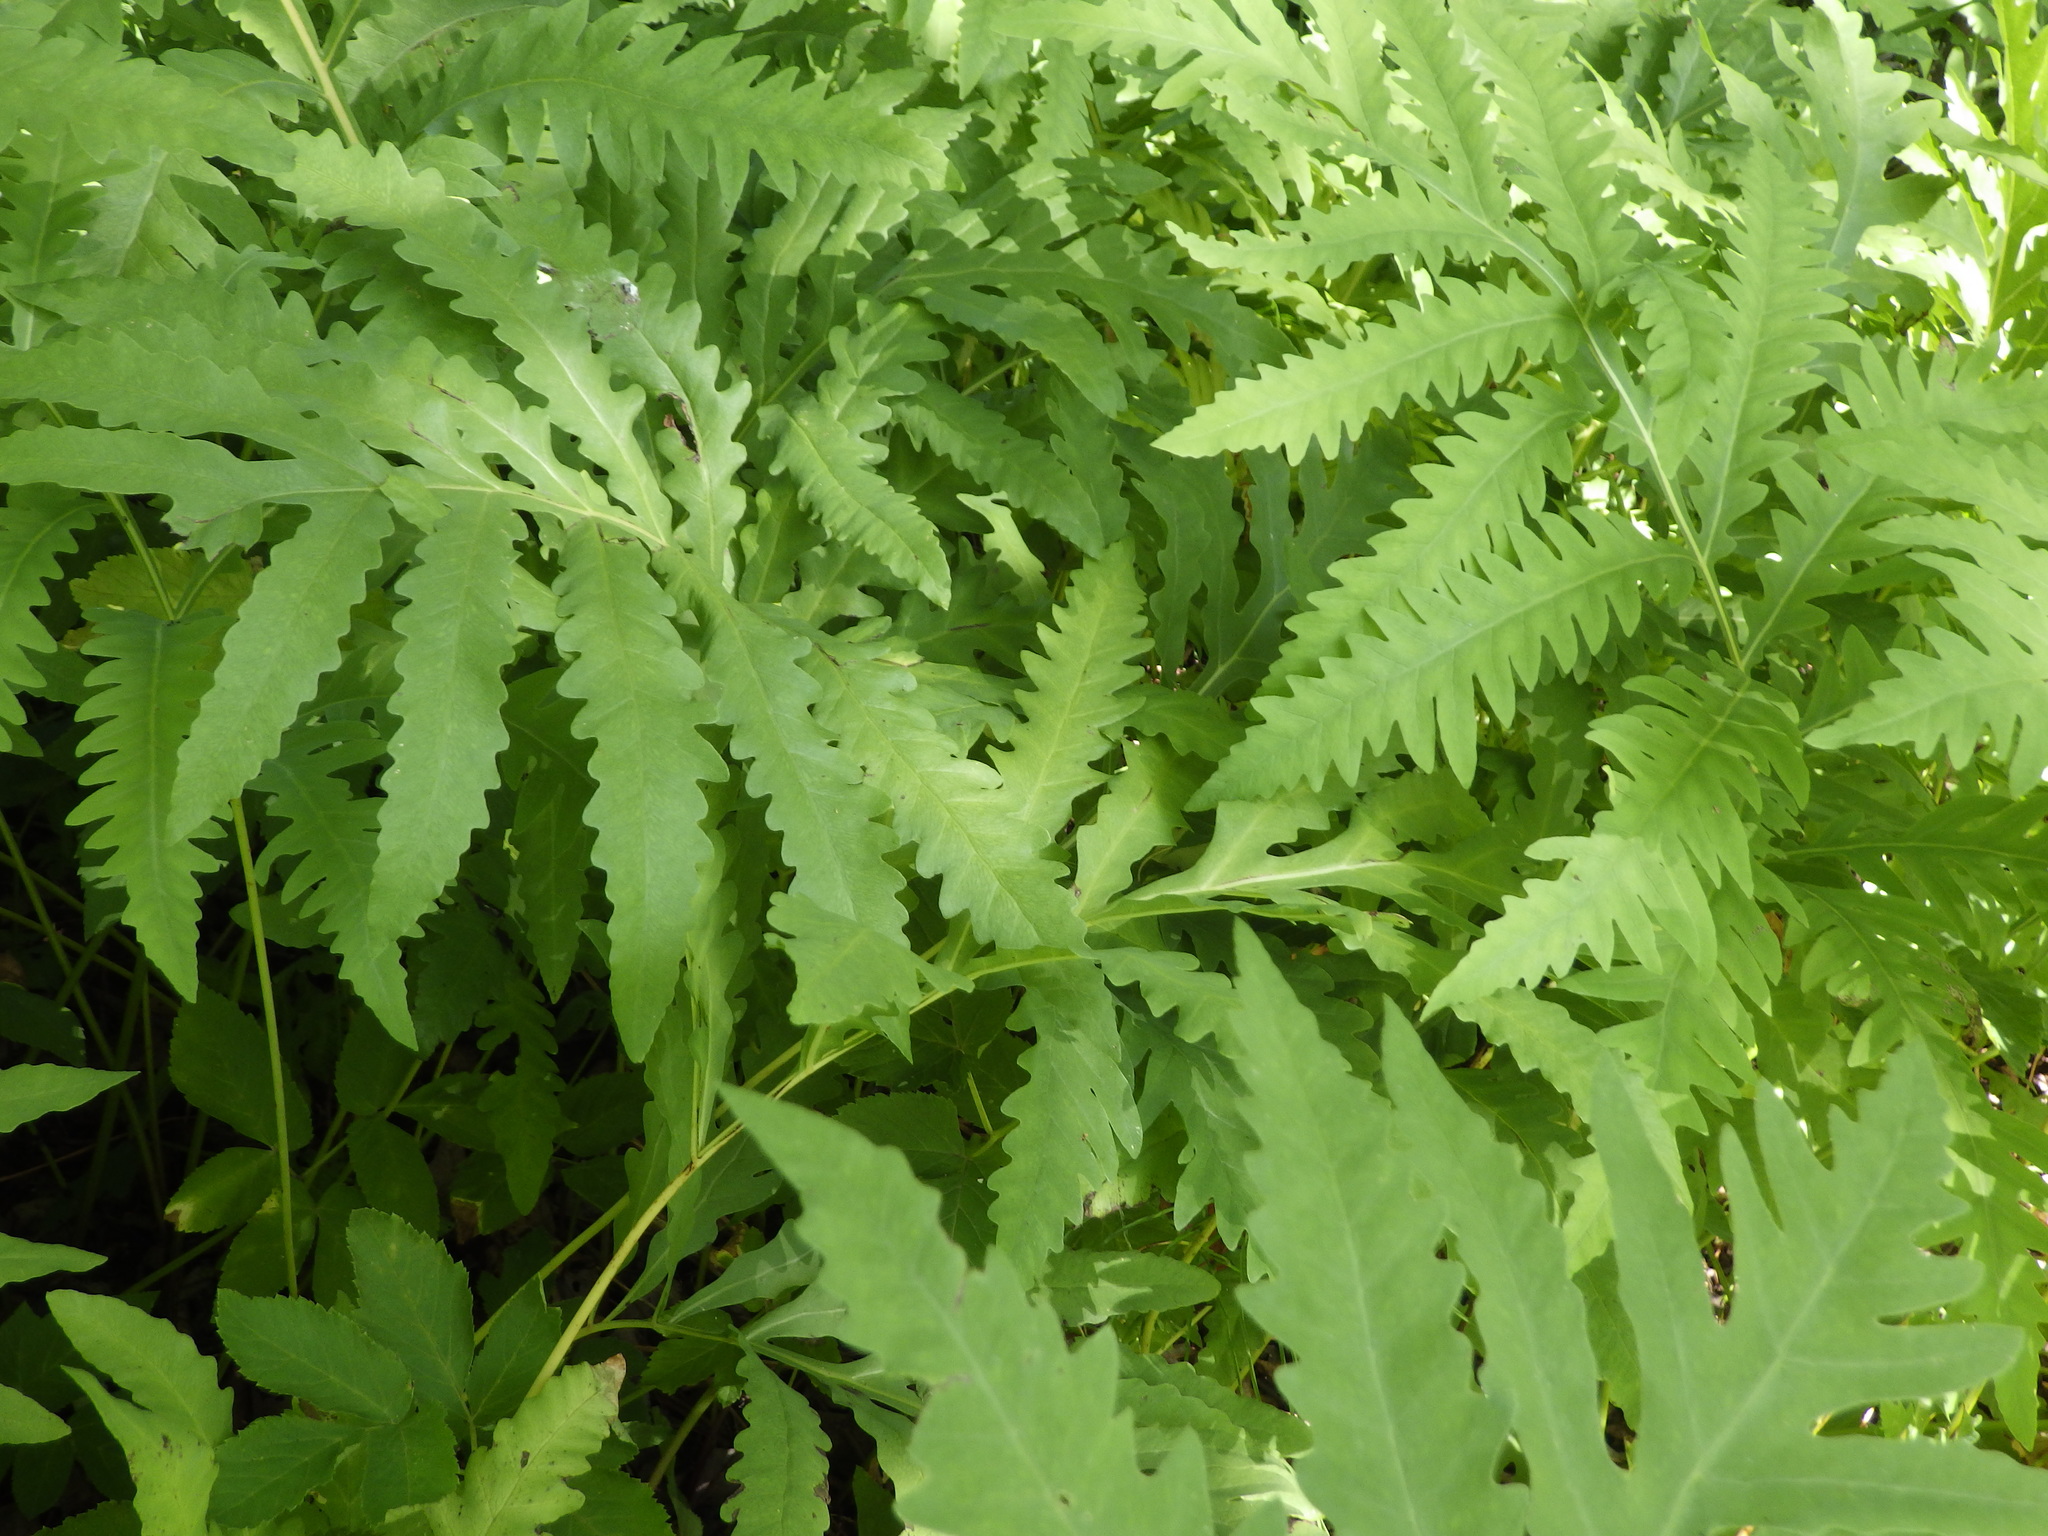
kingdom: Plantae
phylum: Tracheophyta
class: Polypodiopsida
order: Polypodiales
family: Onocleaceae
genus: Onoclea
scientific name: Onoclea sensibilis
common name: Sensitive fern
